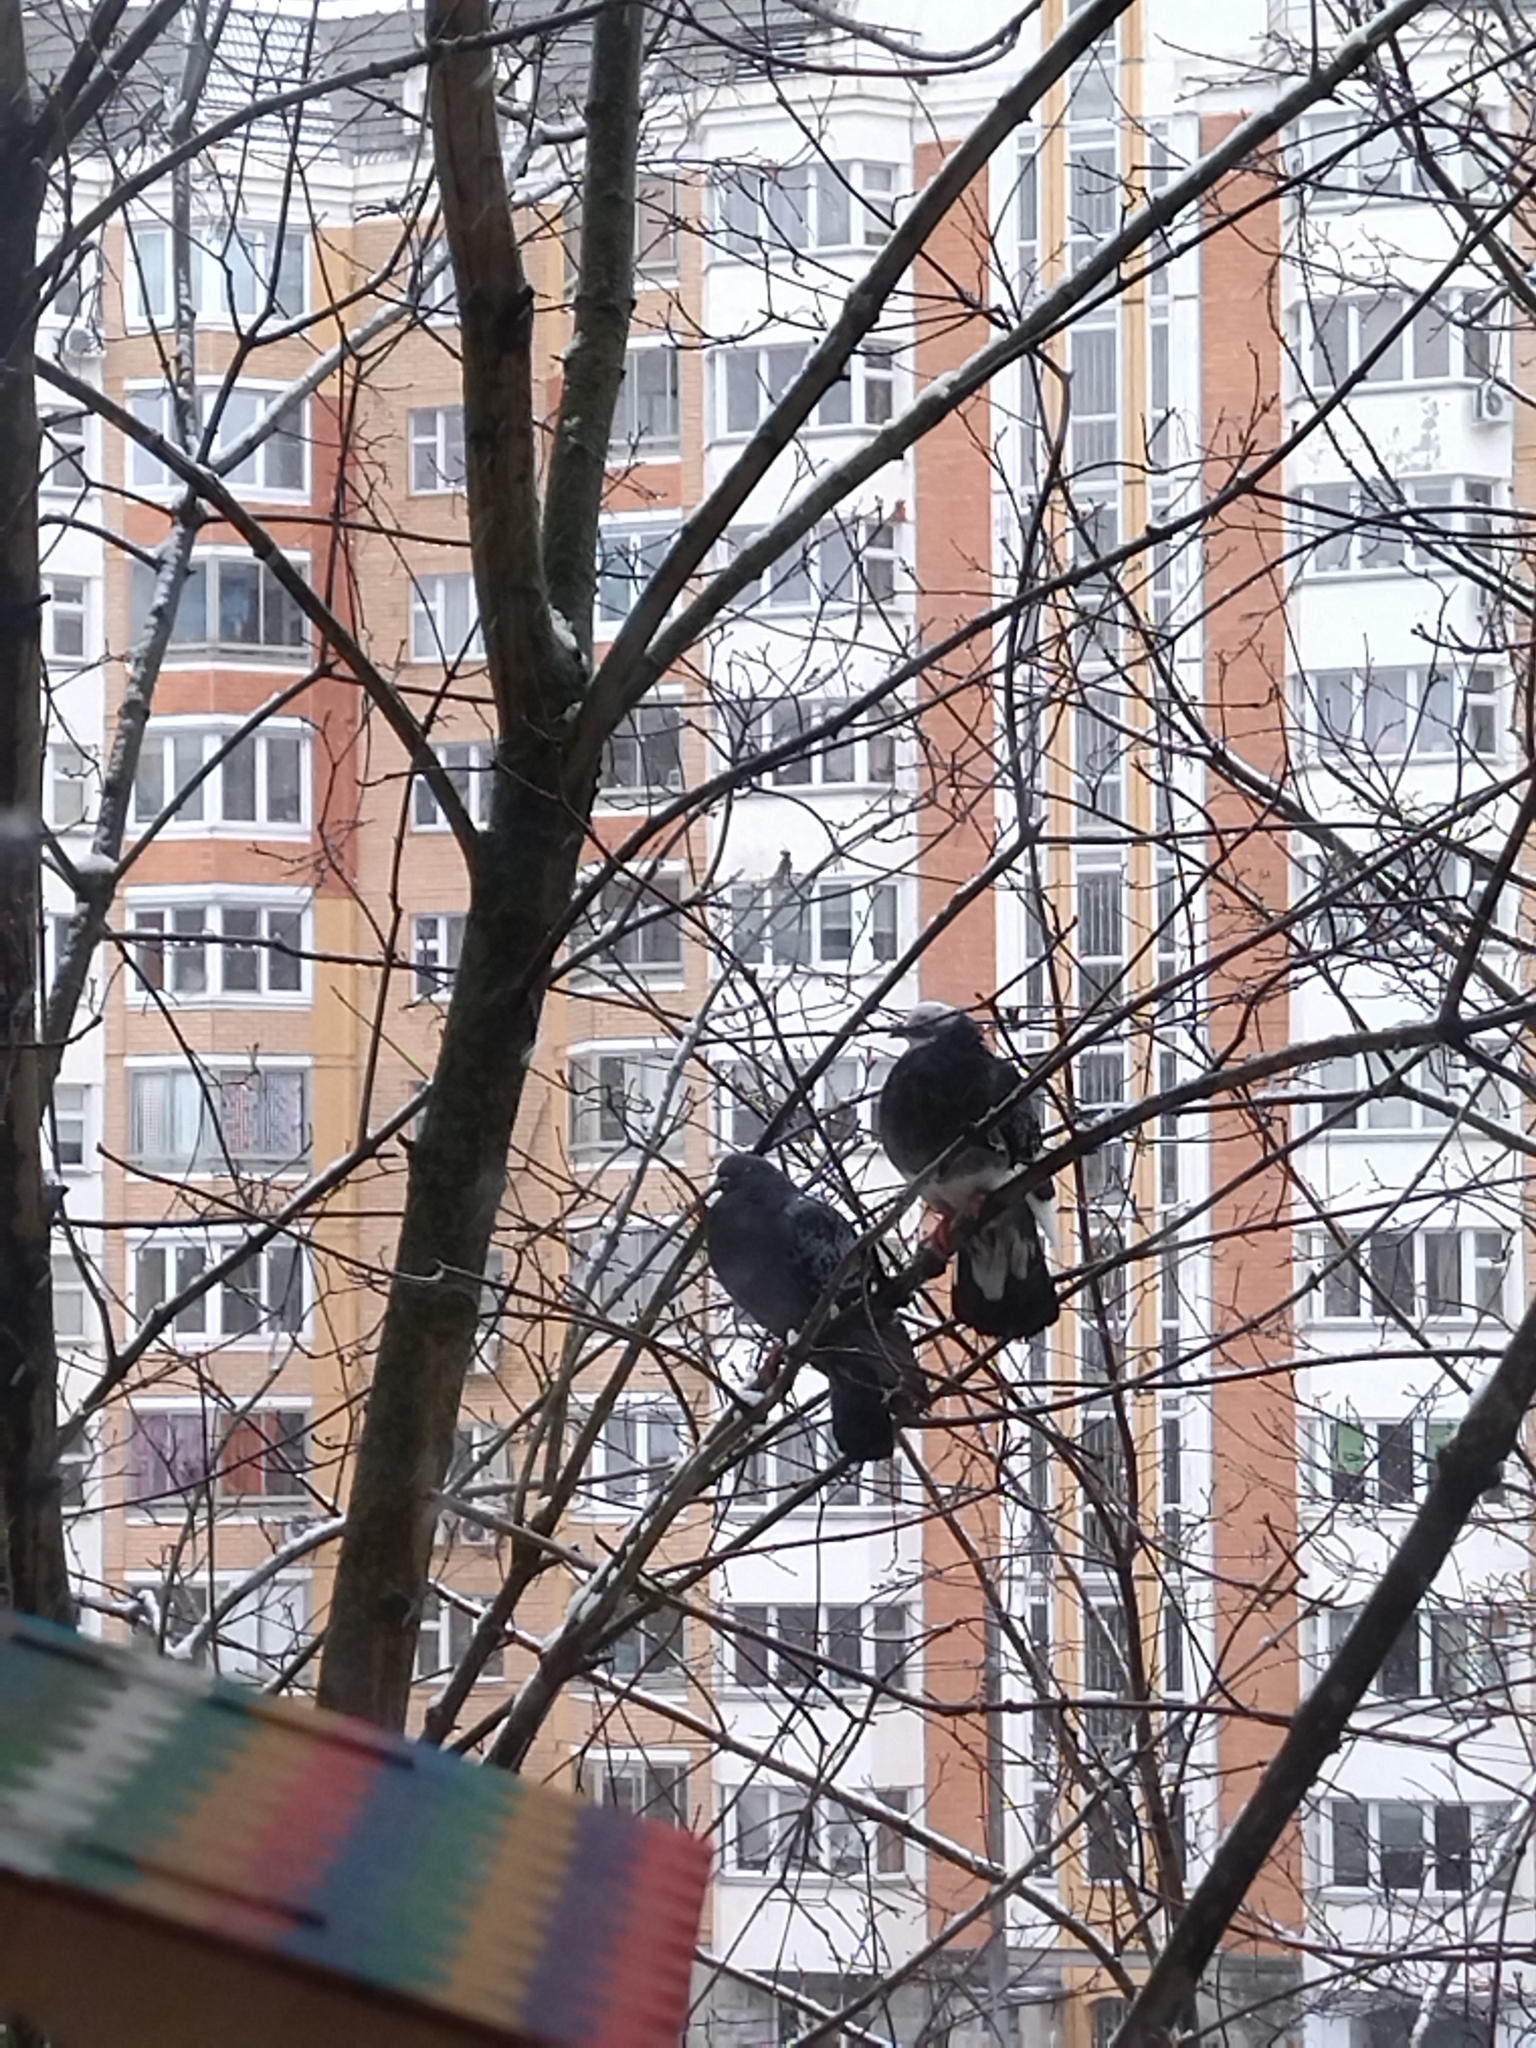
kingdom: Animalia
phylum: Chordata
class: Aves
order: Columbiformes
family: Columbidae
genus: Columba
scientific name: Columba livia
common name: Rock pigeon
